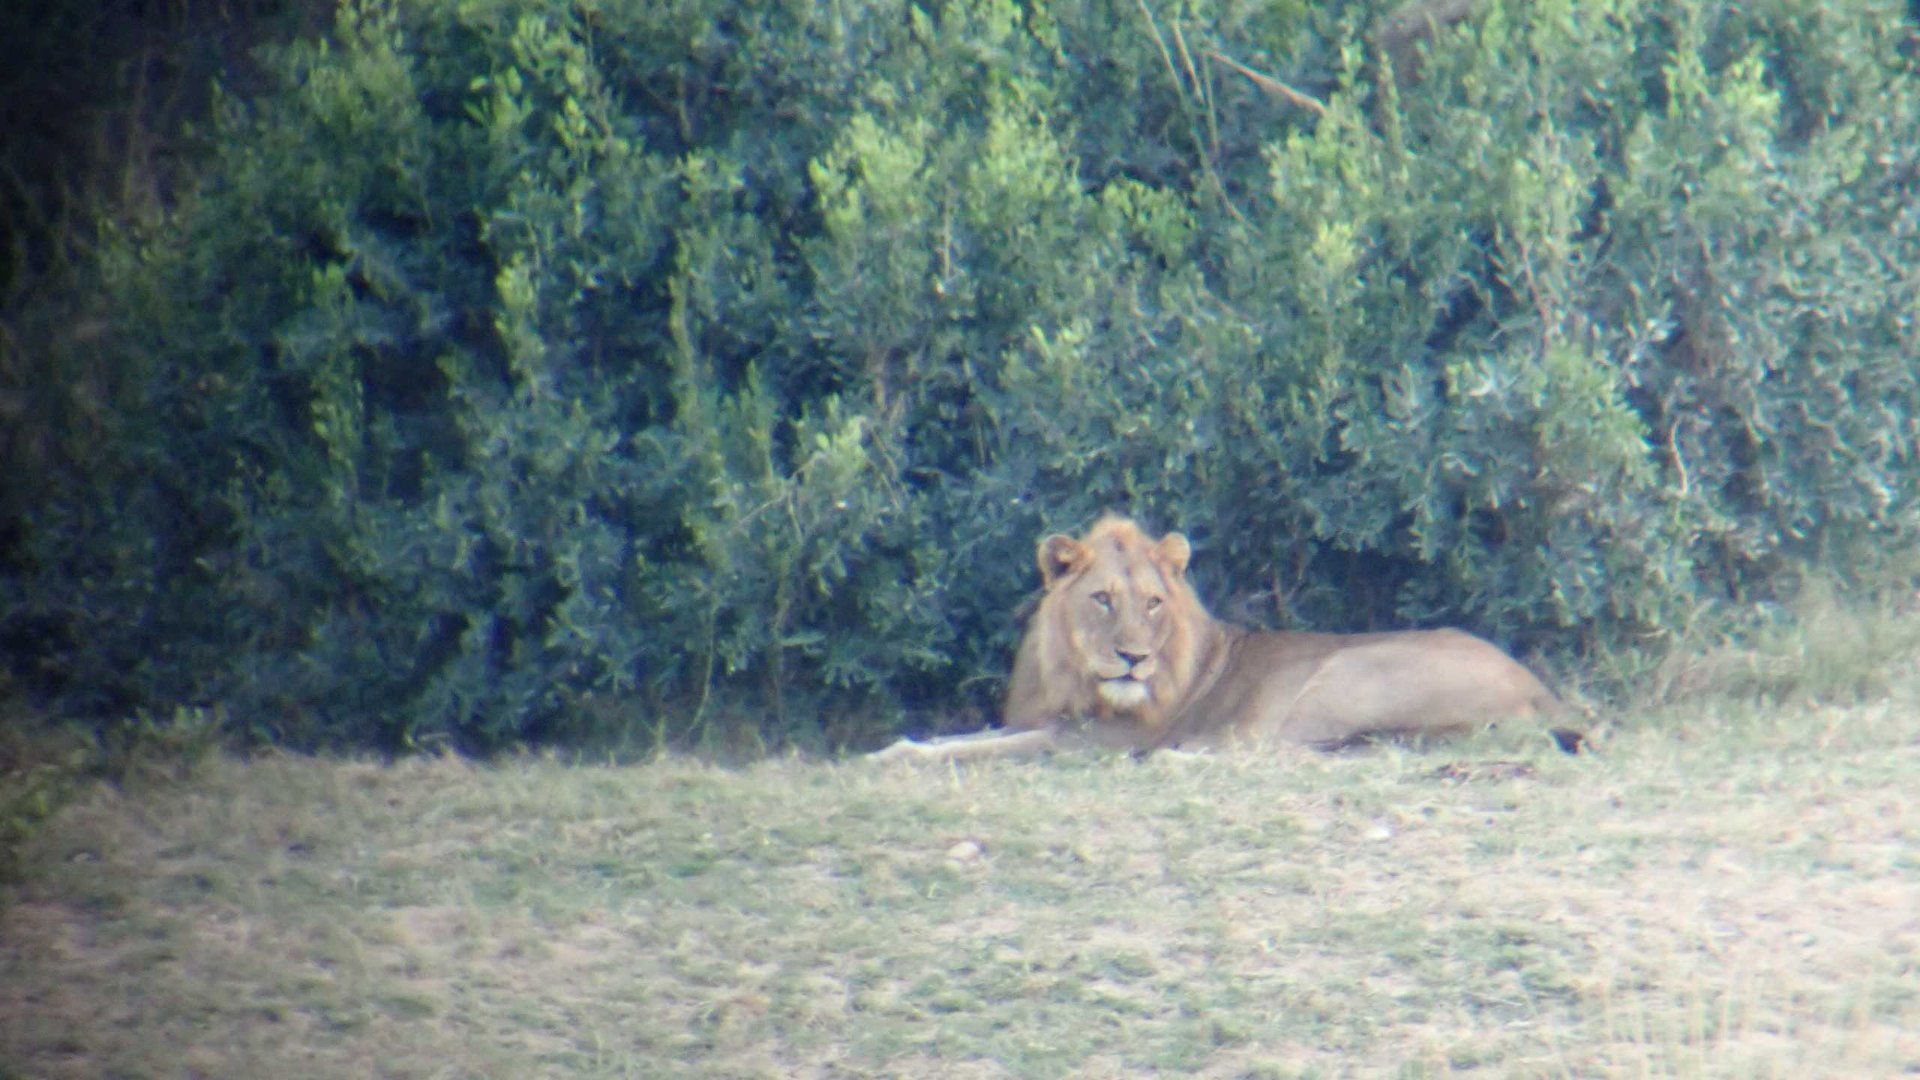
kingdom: Animalia
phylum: Chordata
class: Mammalia
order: Carnivora
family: Felidae
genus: Panthera
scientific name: Panthera leo
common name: Lion
